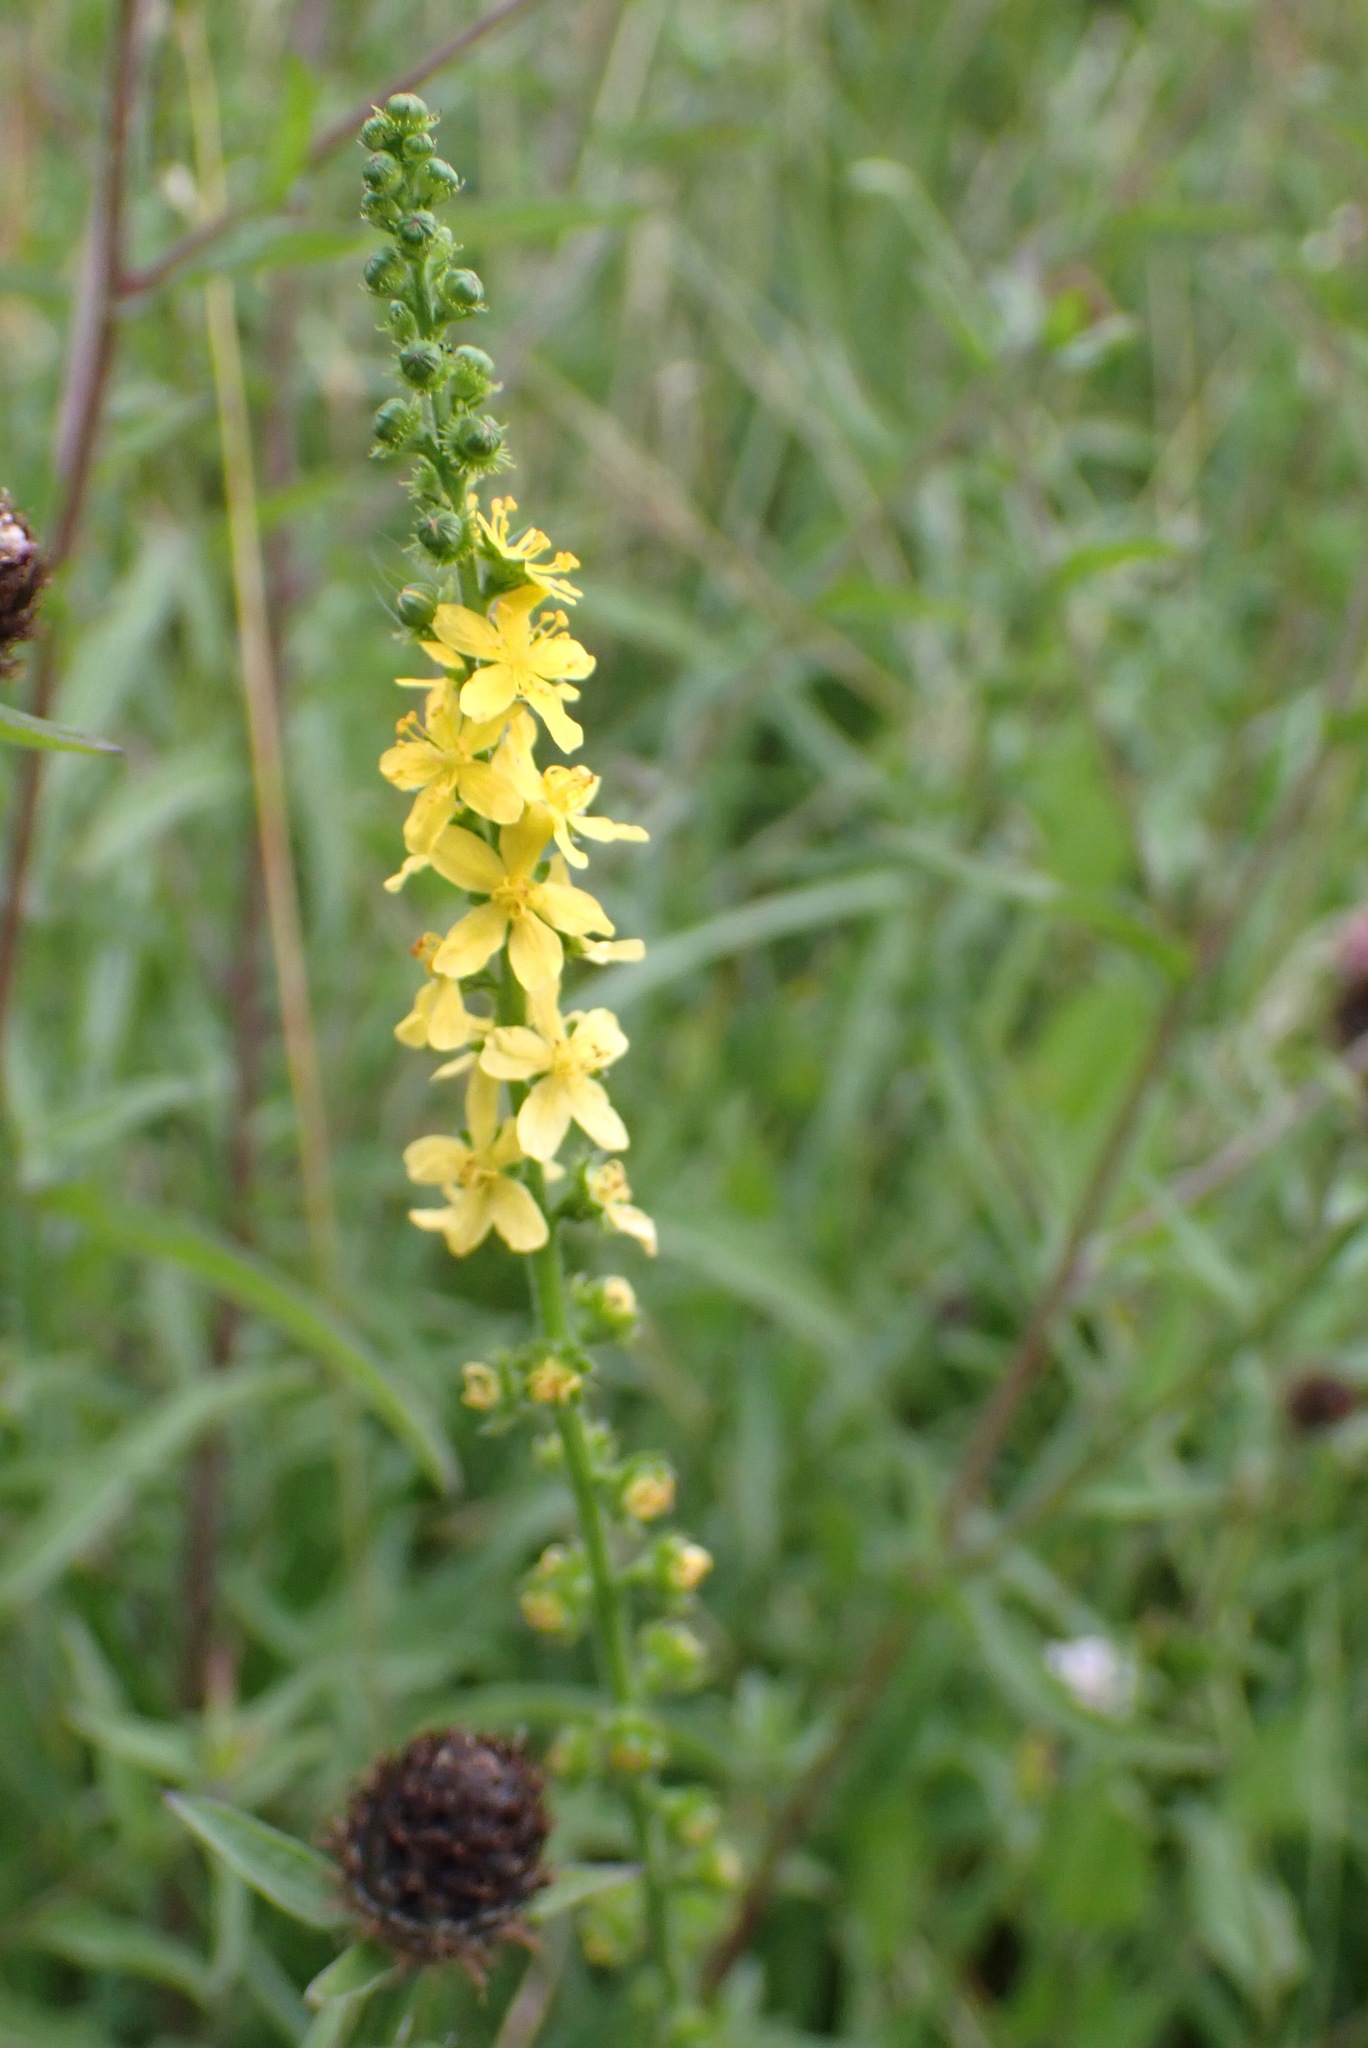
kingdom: Plantae
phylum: Tracheophyta
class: Magnoliopsida
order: Rosales
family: Rosaceae
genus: Agrimonia
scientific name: Agrimonia eupatoria
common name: Agrimony
